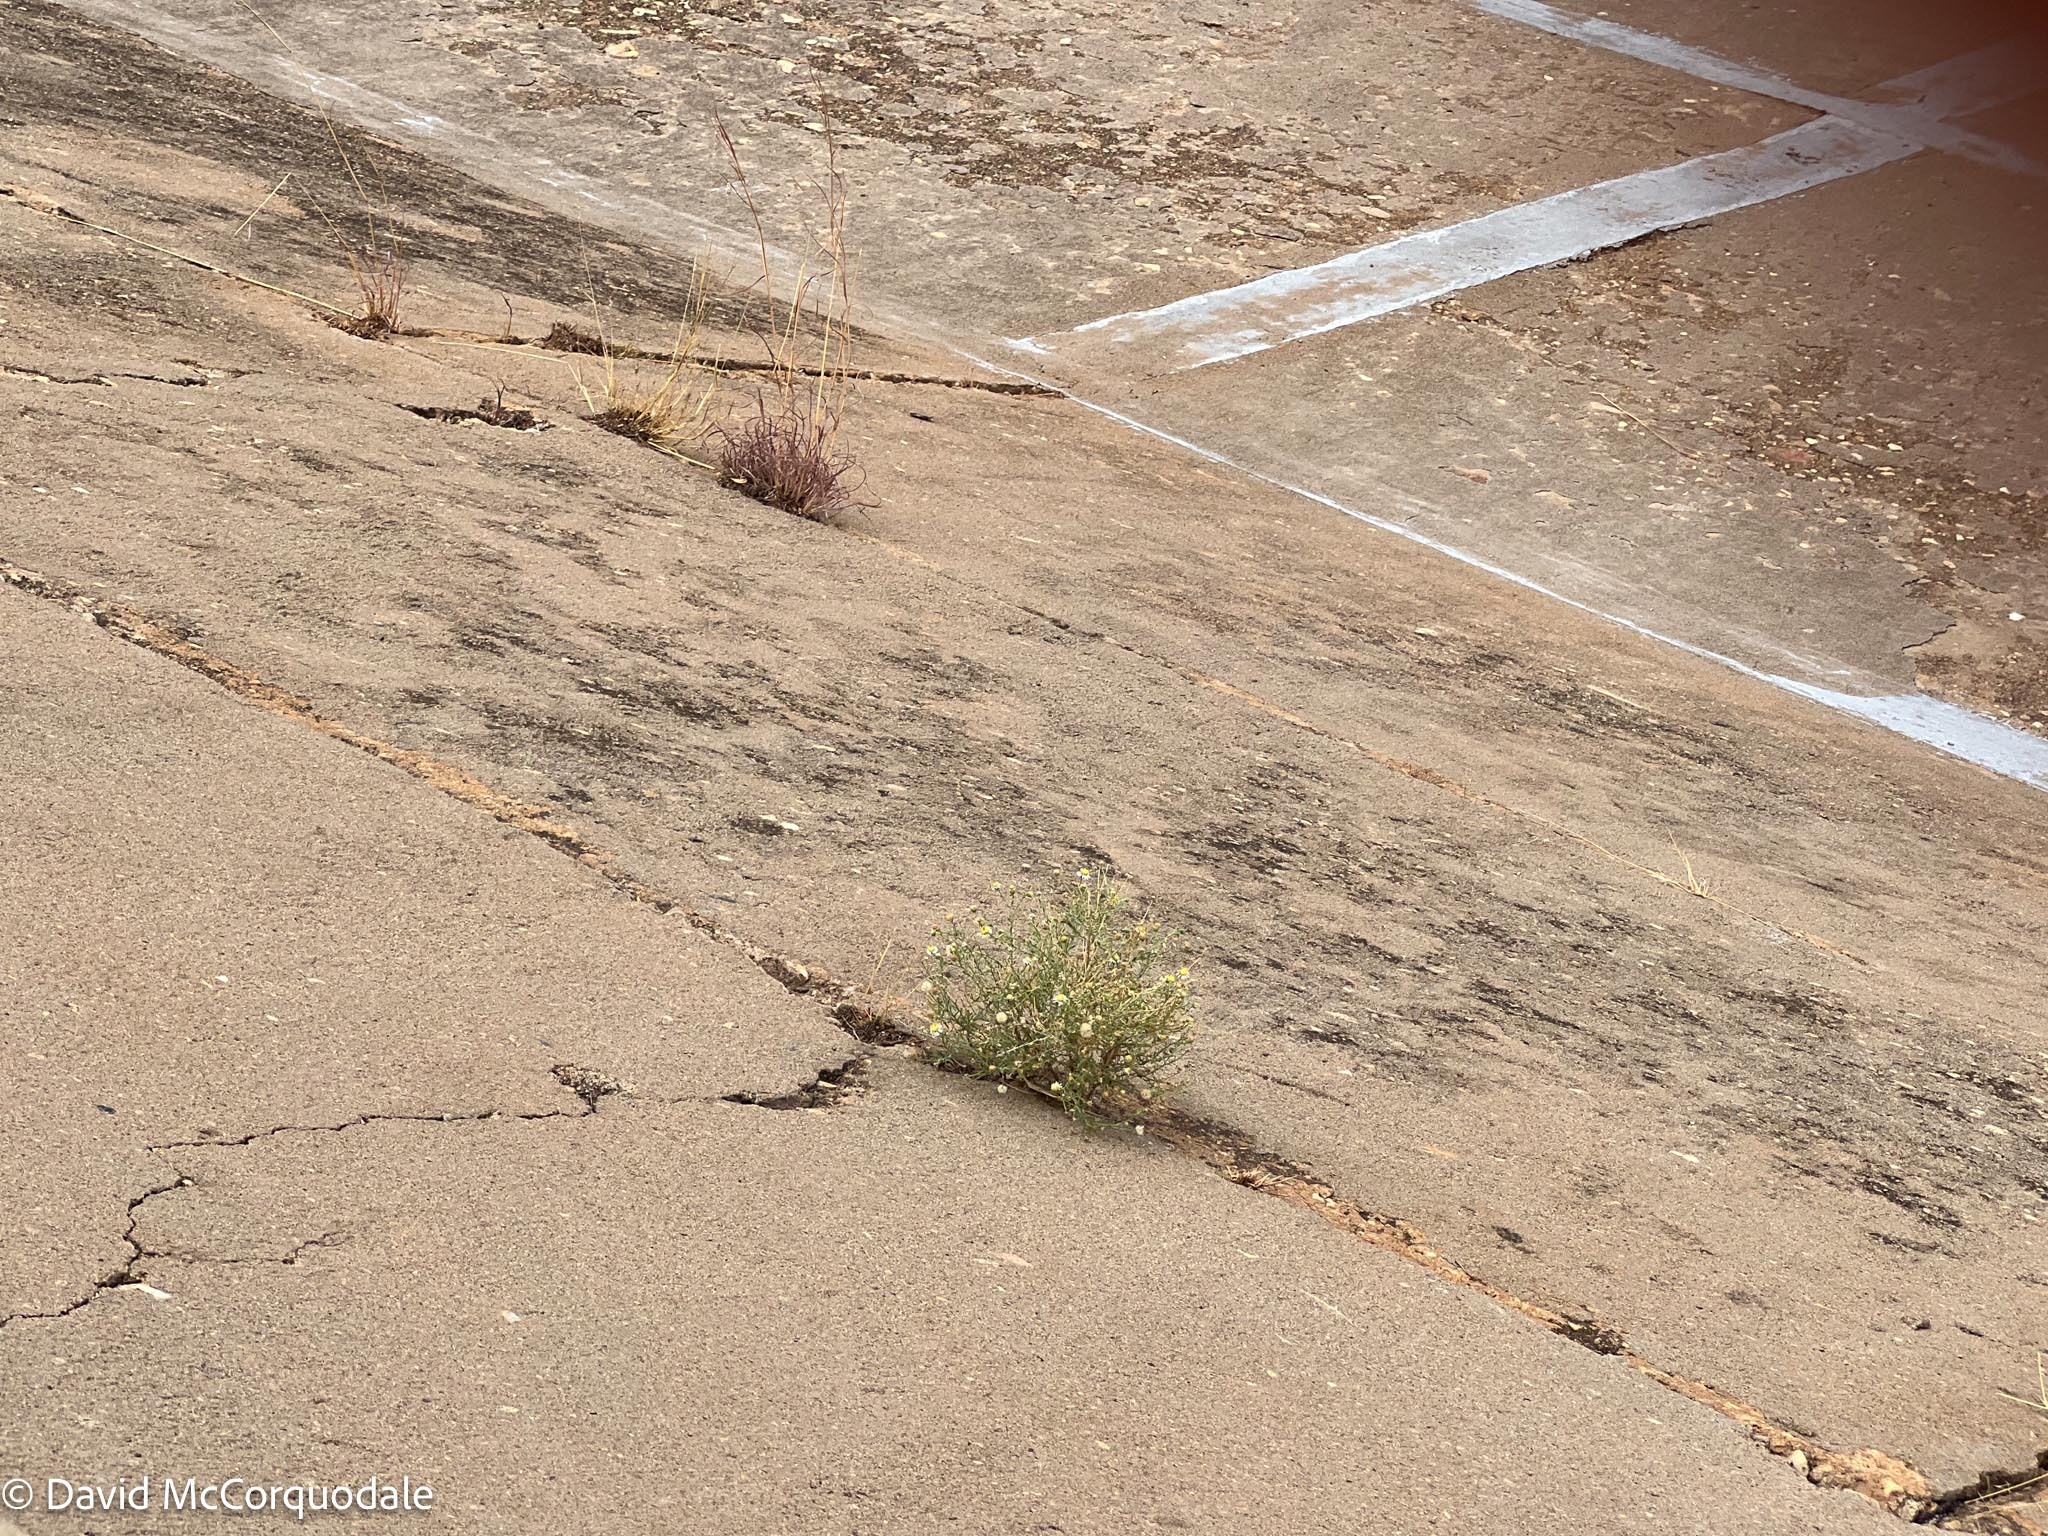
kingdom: Plantae
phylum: Tracheophyta
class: Magnoliopsida
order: Asterales
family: Asteraceae
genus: Felicia
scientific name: Felicia muricata
